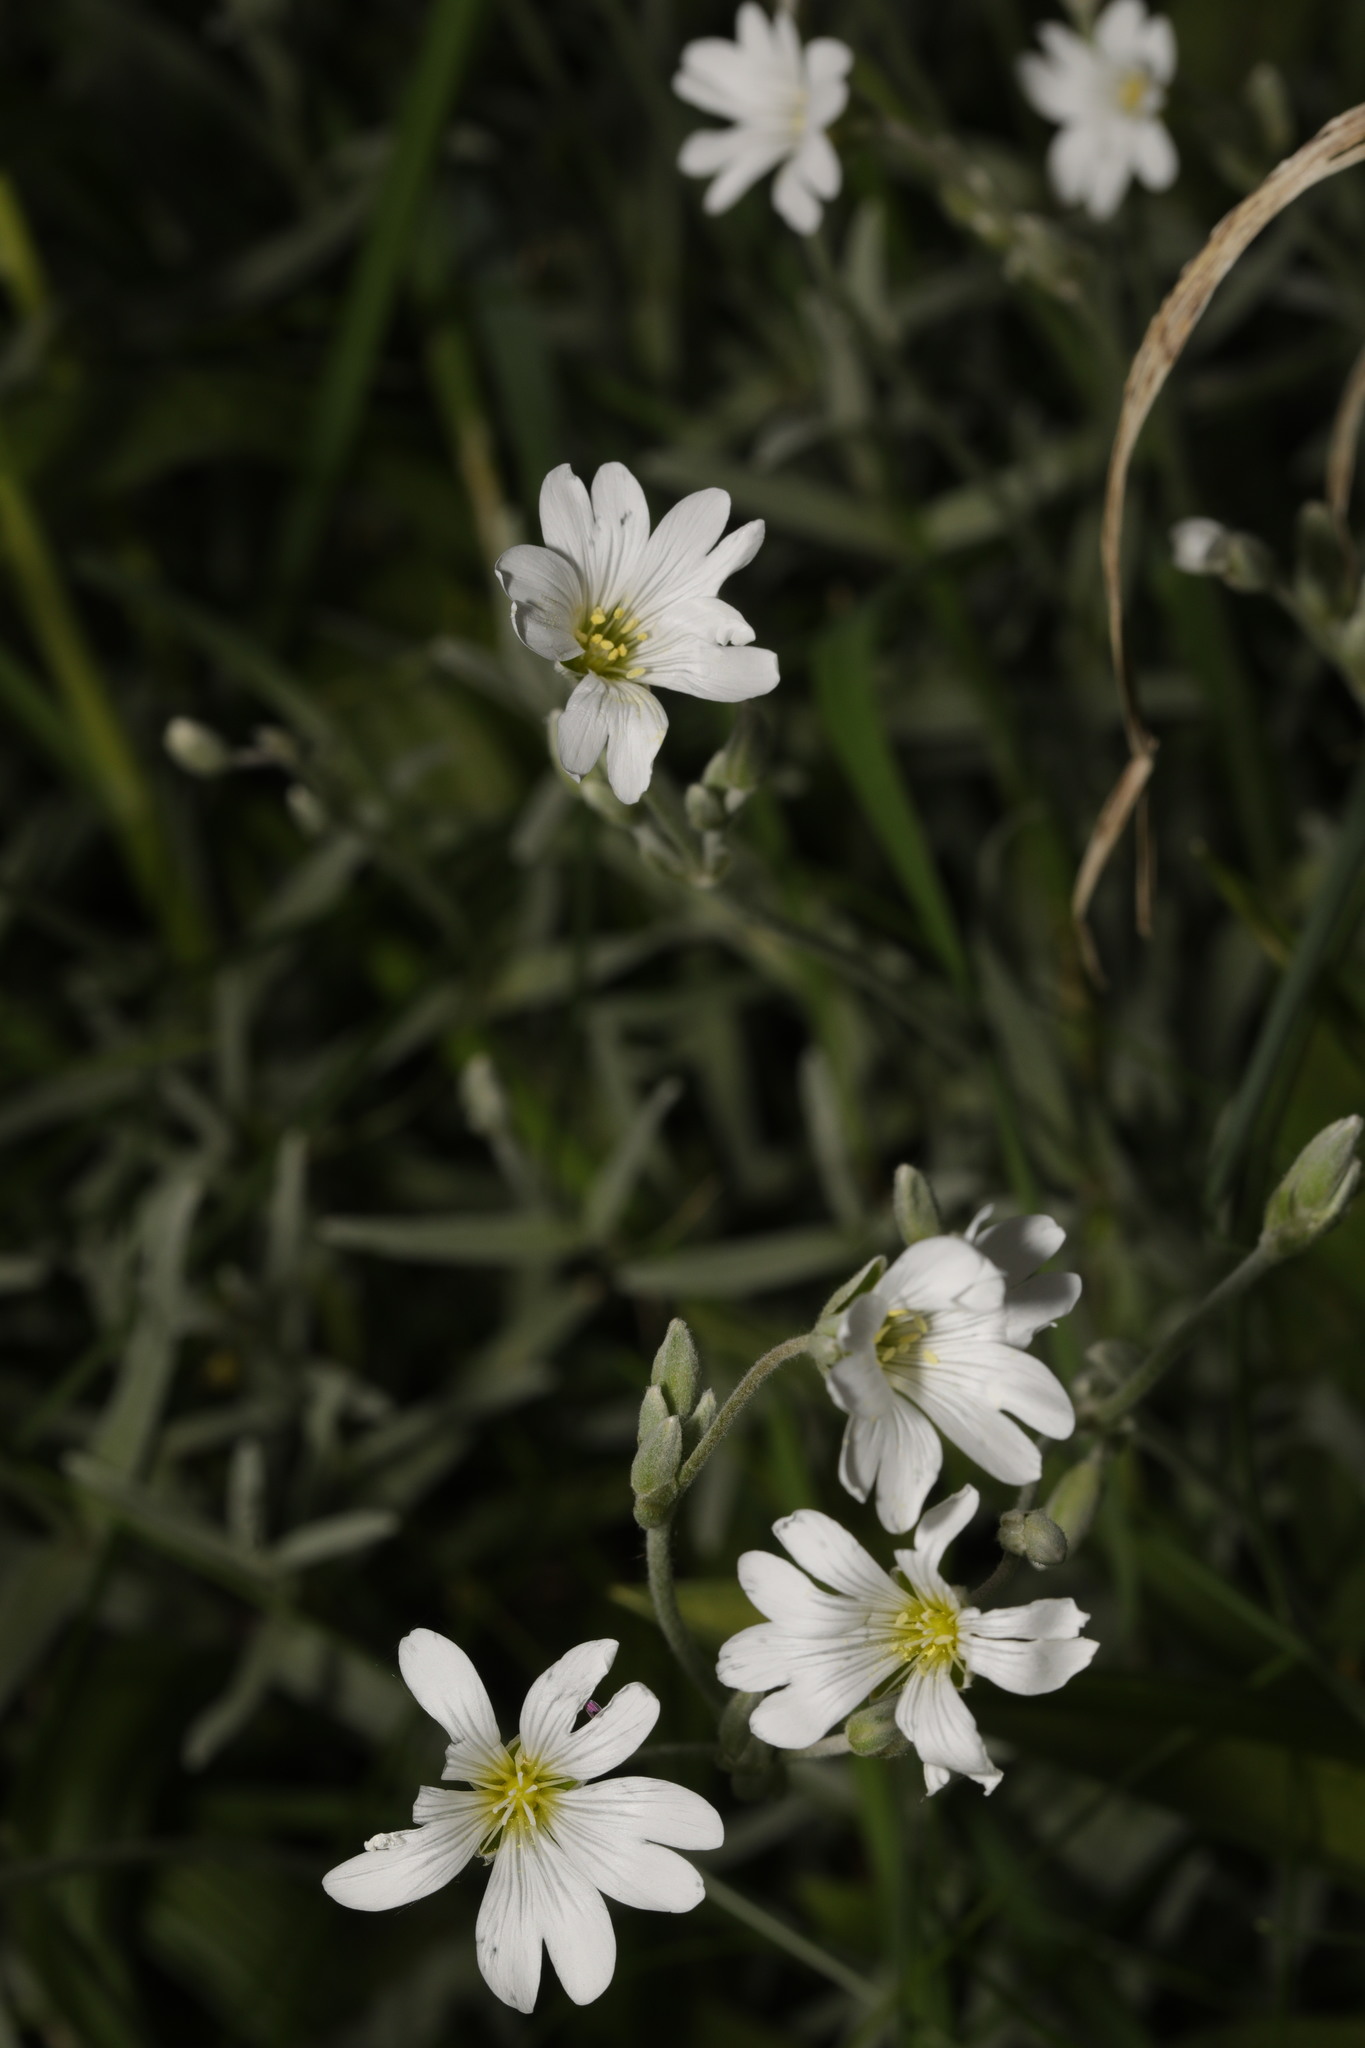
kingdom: Plantae
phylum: Tracheophyta
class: Magnoliopsida
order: Caryophyllales
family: Caryophyllaceae
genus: Cerastium
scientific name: Cerastium tomentosum
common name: Snow-in-summer
